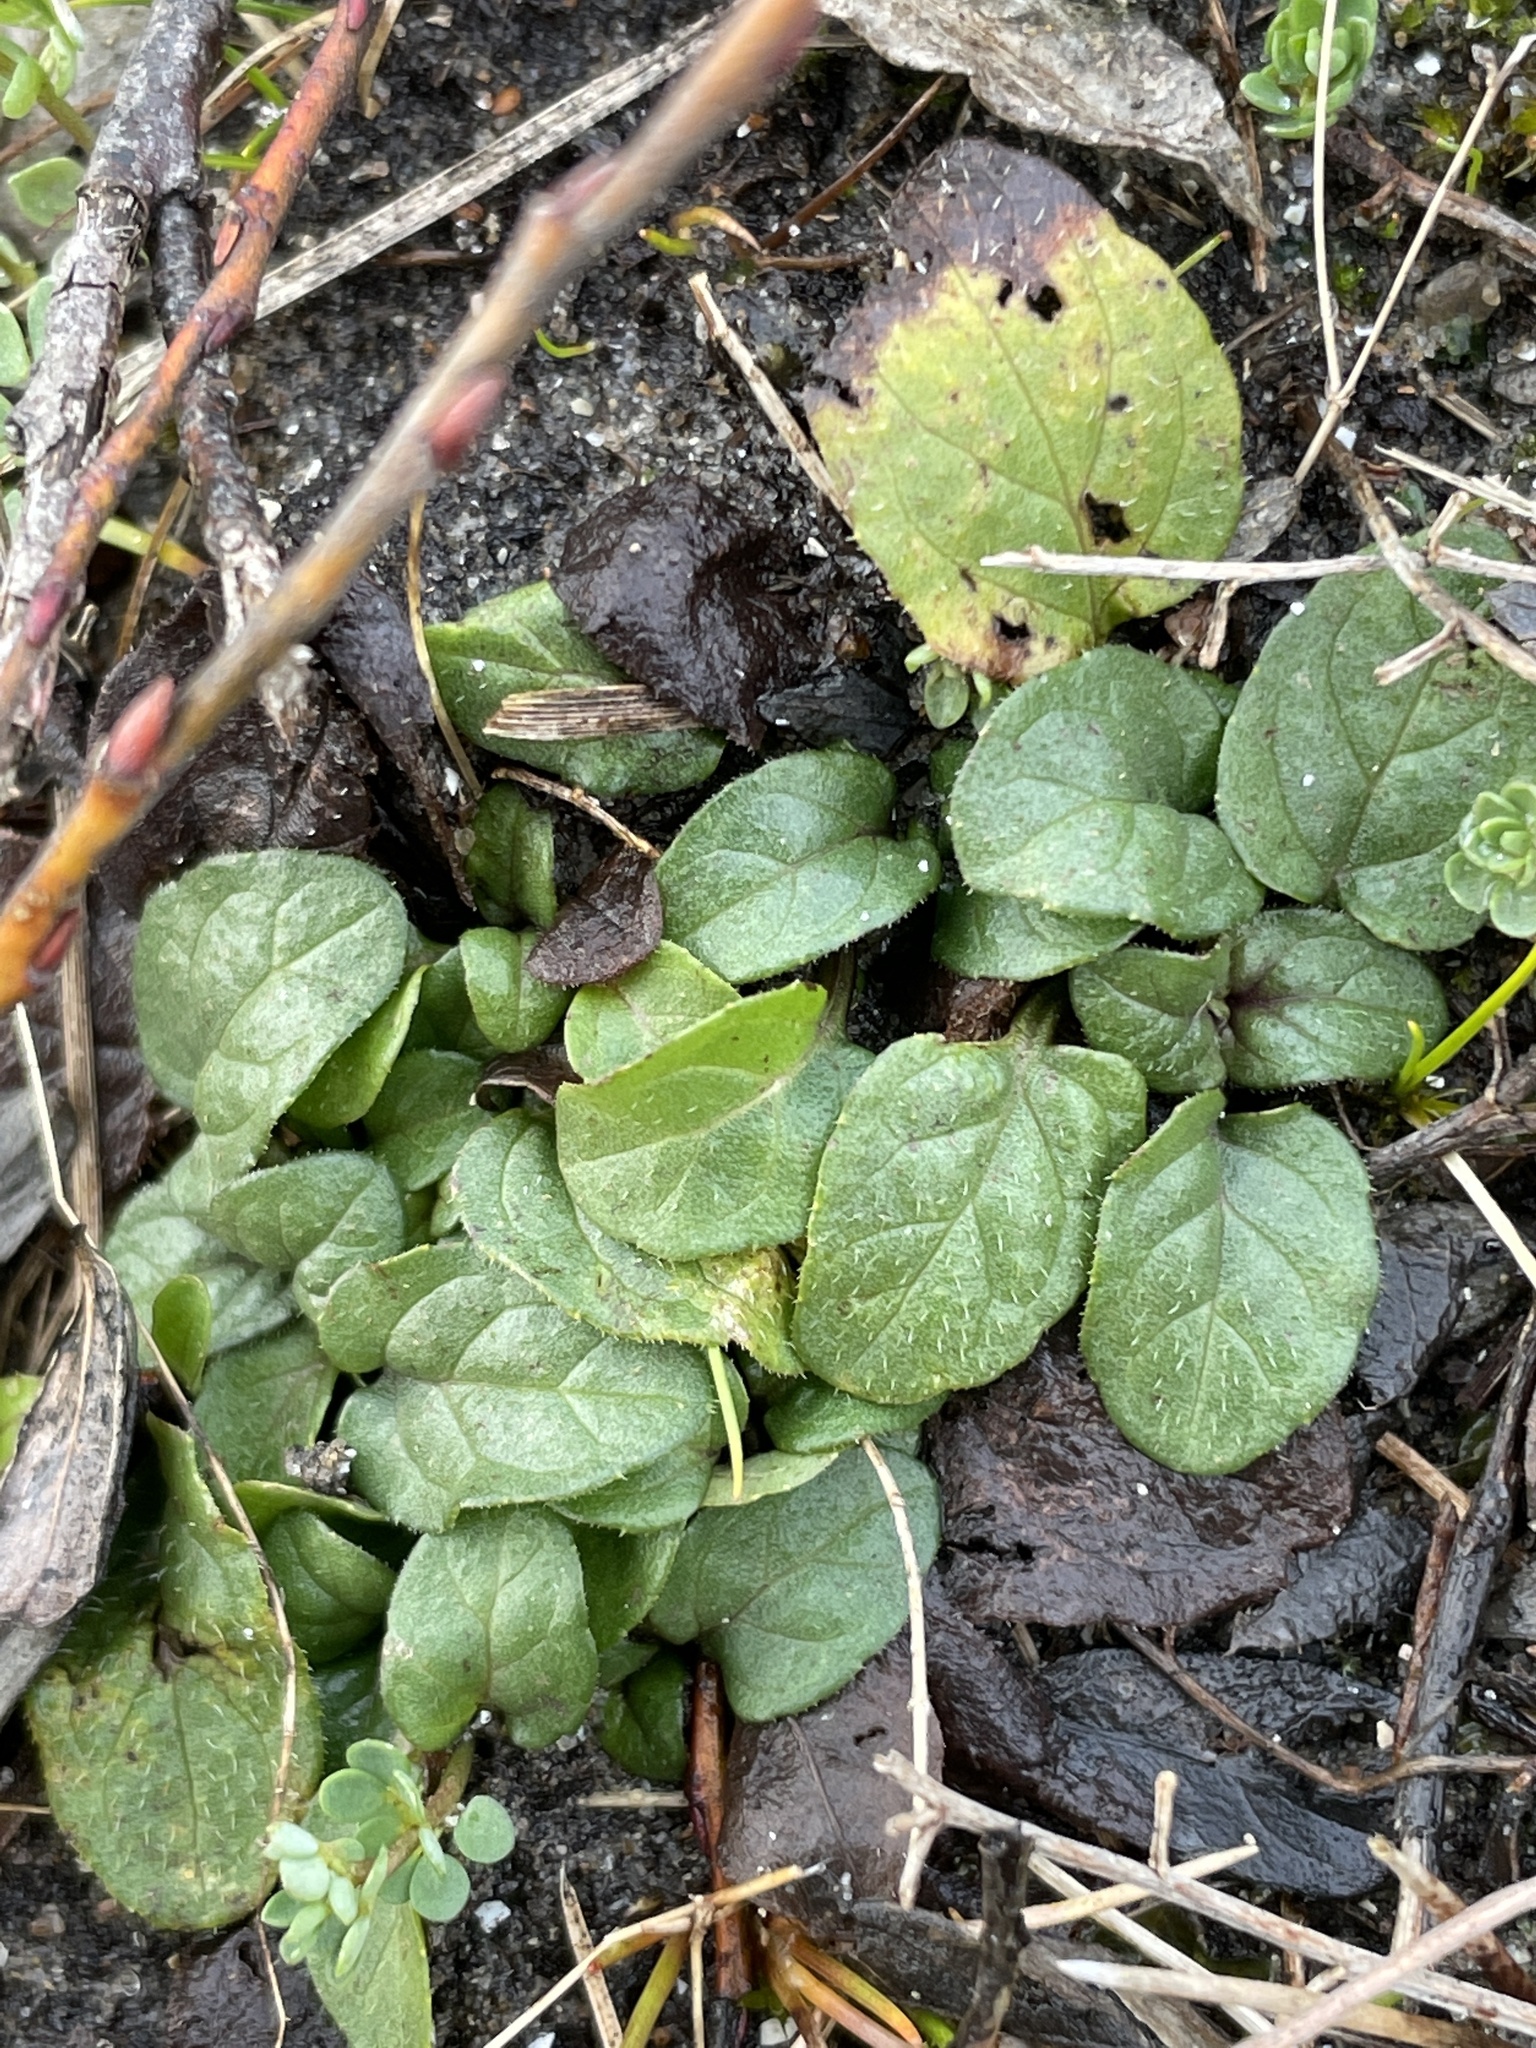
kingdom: Plantae
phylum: Tracheophyta
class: Magnoliopsida
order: Lamiales
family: Lamiaceae
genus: Prunella
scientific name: Prunella vulgaris
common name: Heal-all
